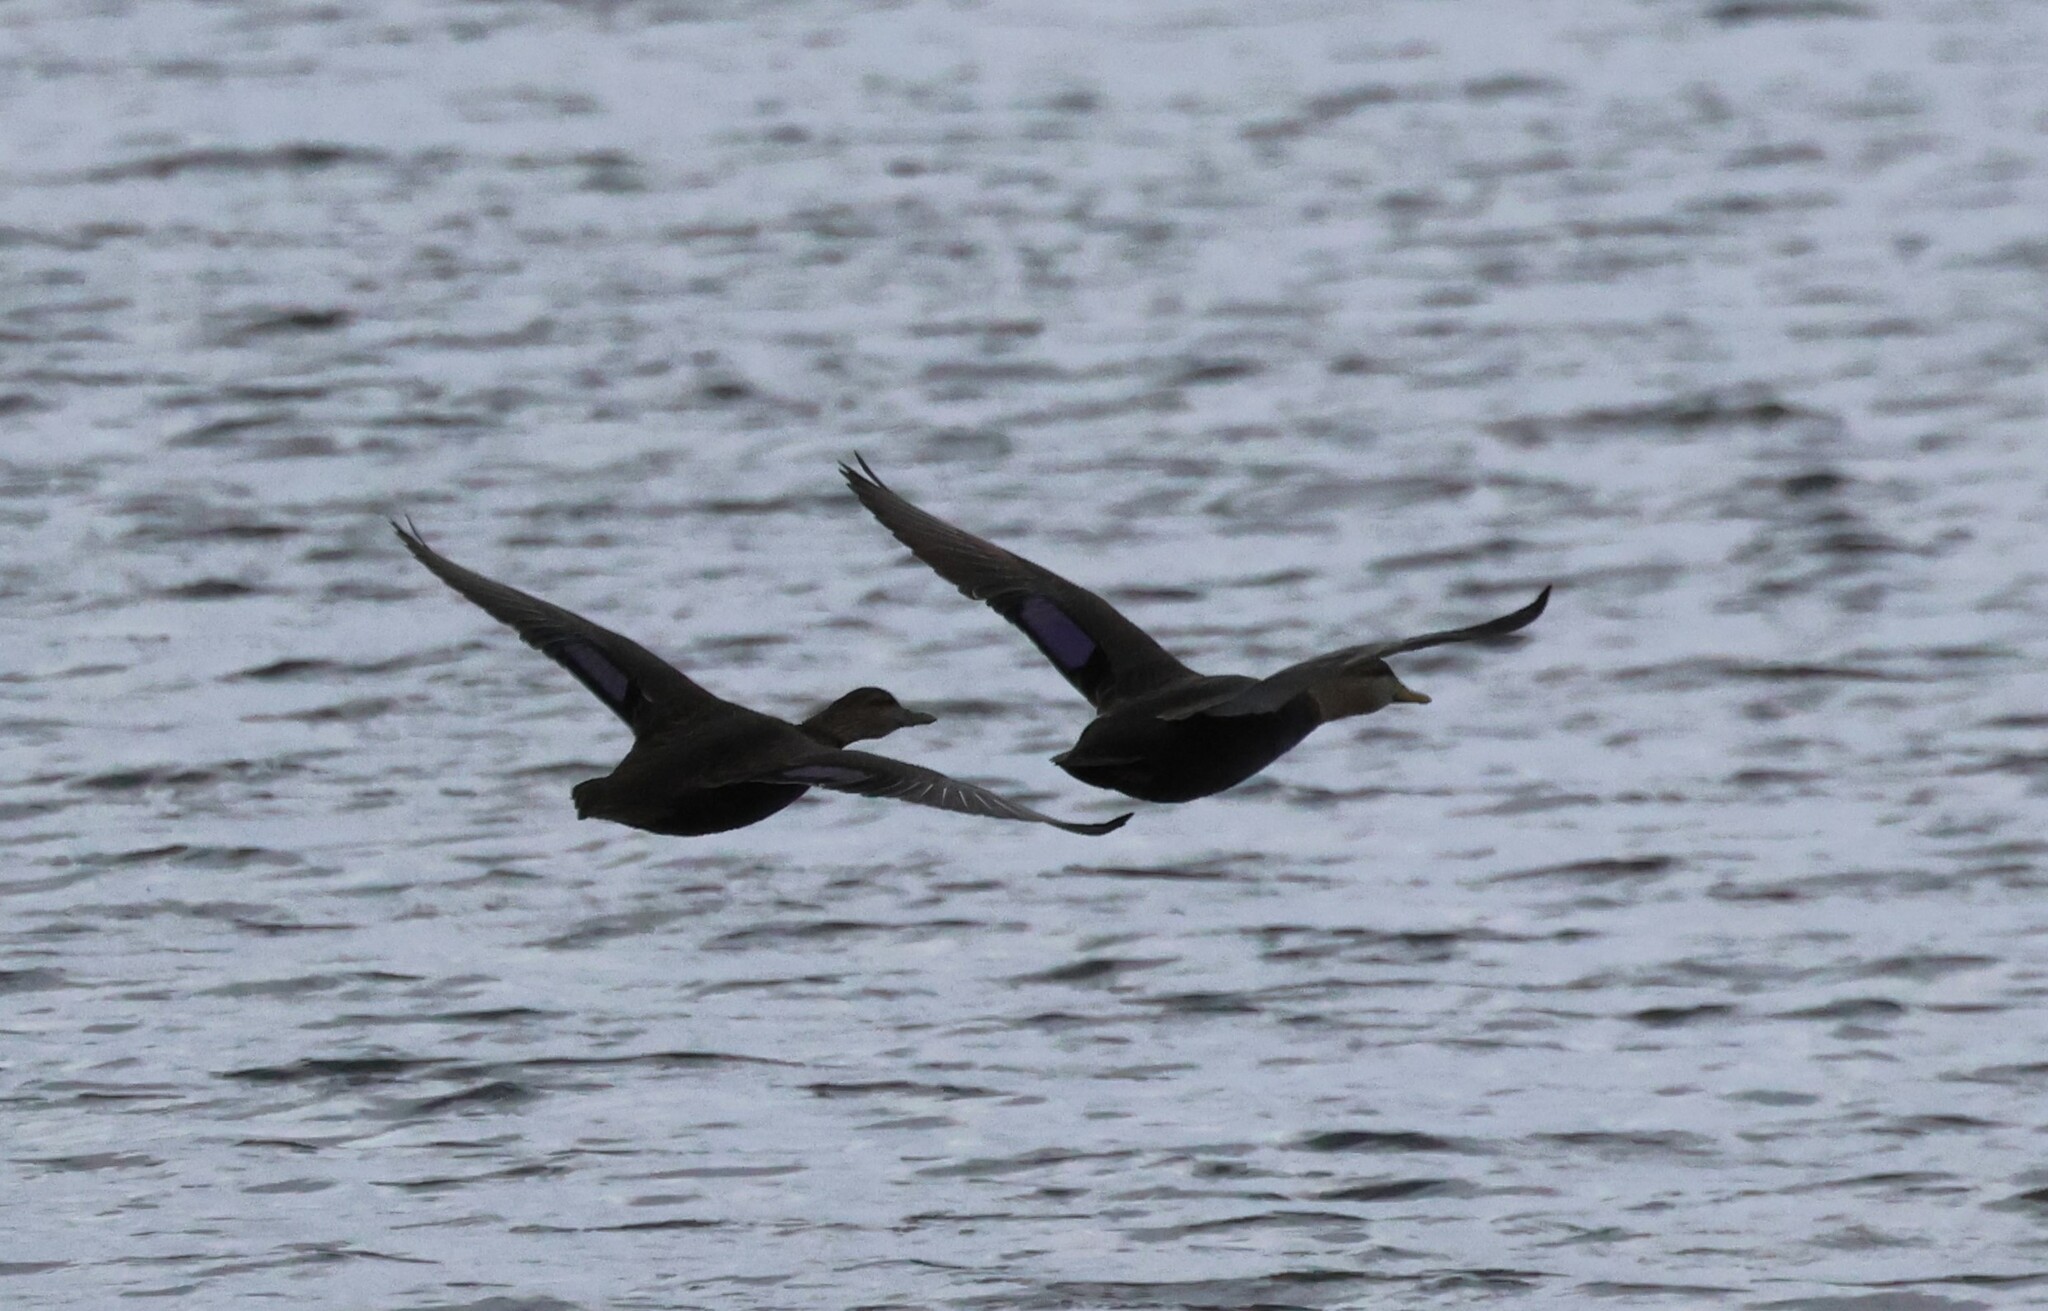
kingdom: Animalia
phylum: Chordata
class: Aves
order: Anseriformes
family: Anatidae
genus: Anas
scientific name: Anas rubripes
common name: American black duck
